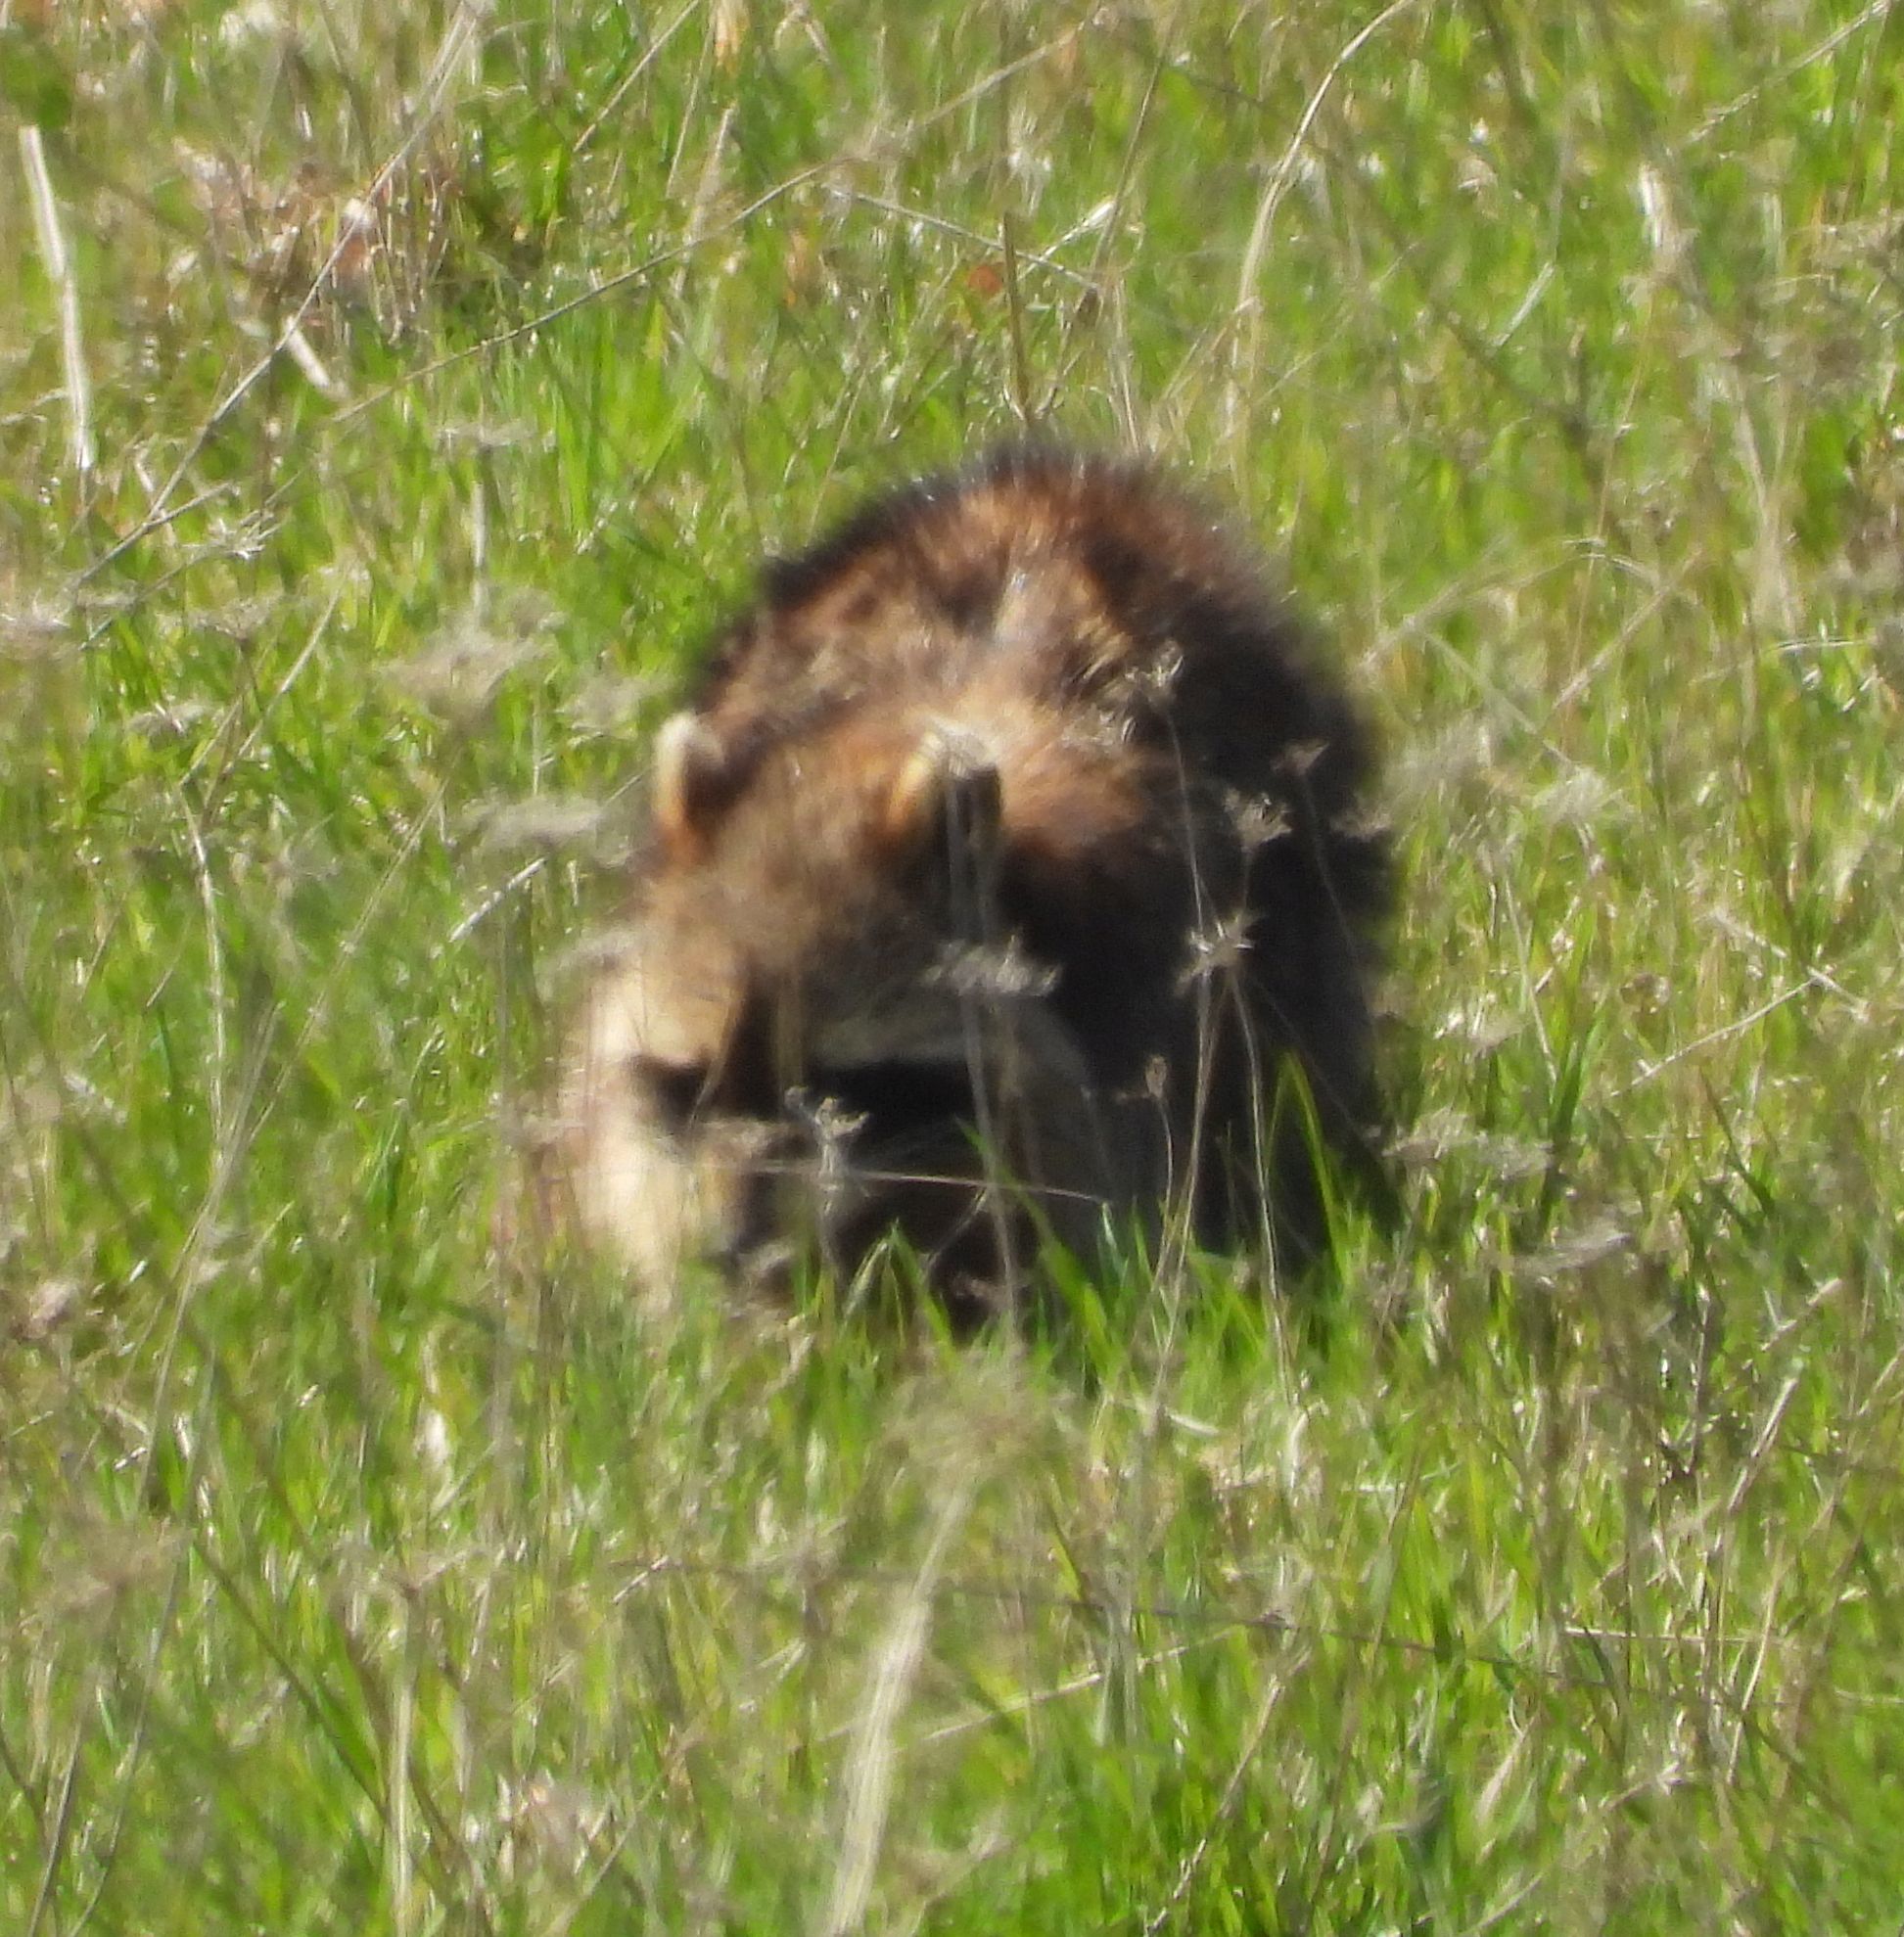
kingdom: Animalia
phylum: Chordata
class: Mammalia
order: Carnivora
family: Procyonidae
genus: Procyon
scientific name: Procyon lotor
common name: Raccoon
